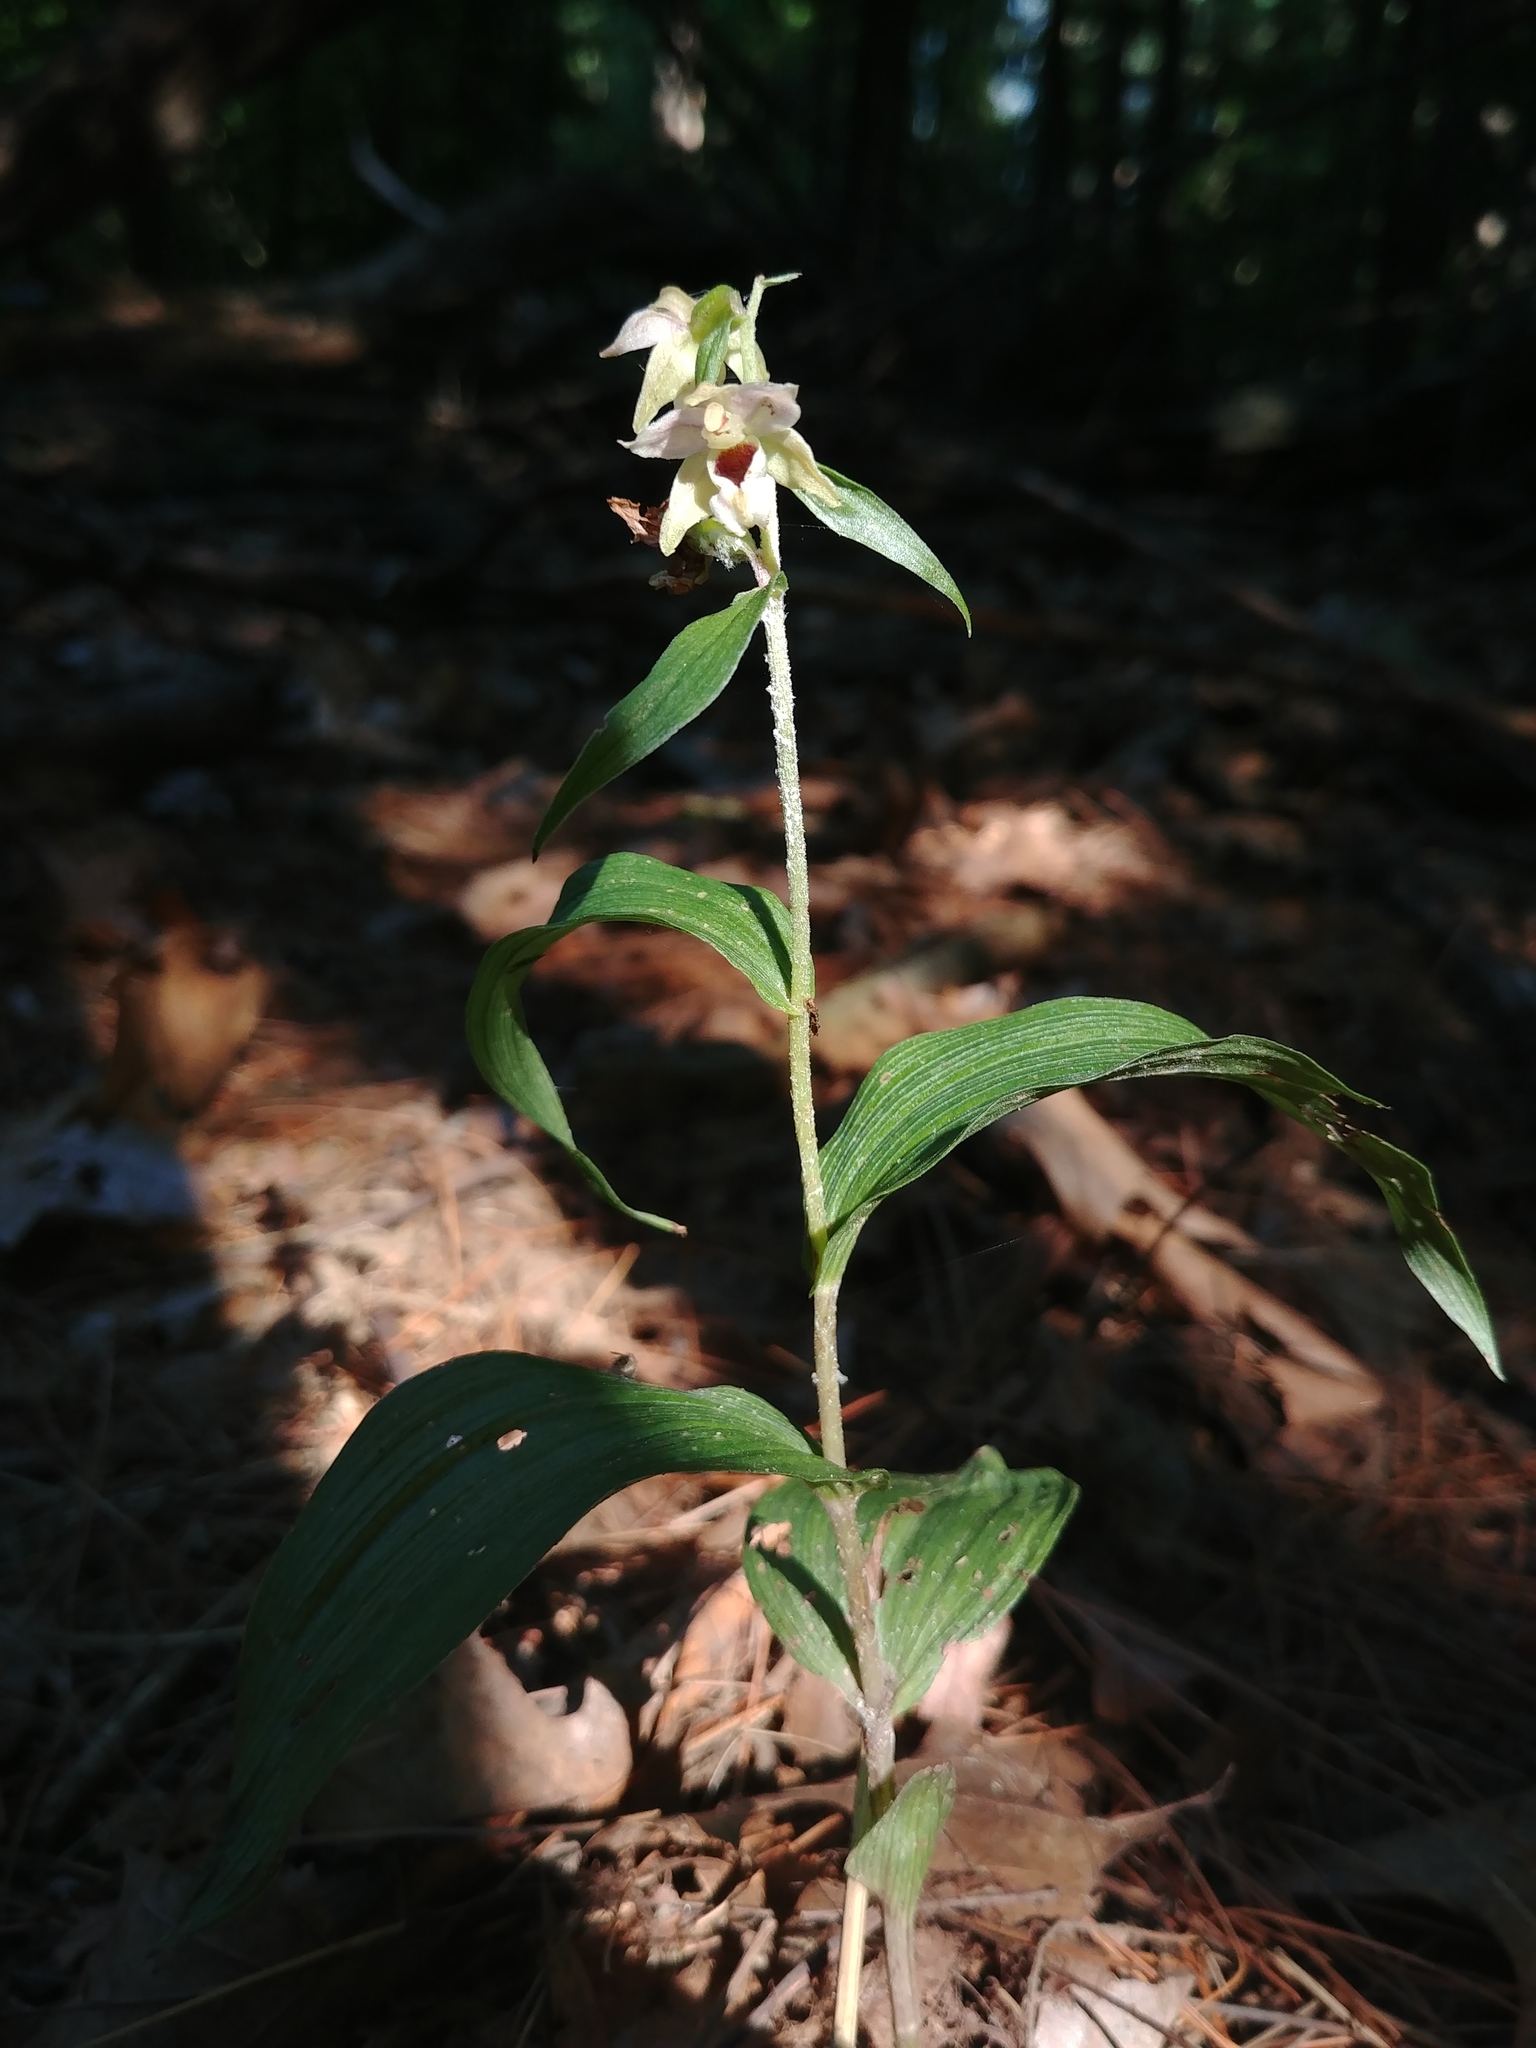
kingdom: Plantae
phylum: Tracheophyta
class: Liliopsida
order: Asparagales
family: Orchidaceae
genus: Epipactis
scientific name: Epipactis helleborine
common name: Broad-leaved helleborine
